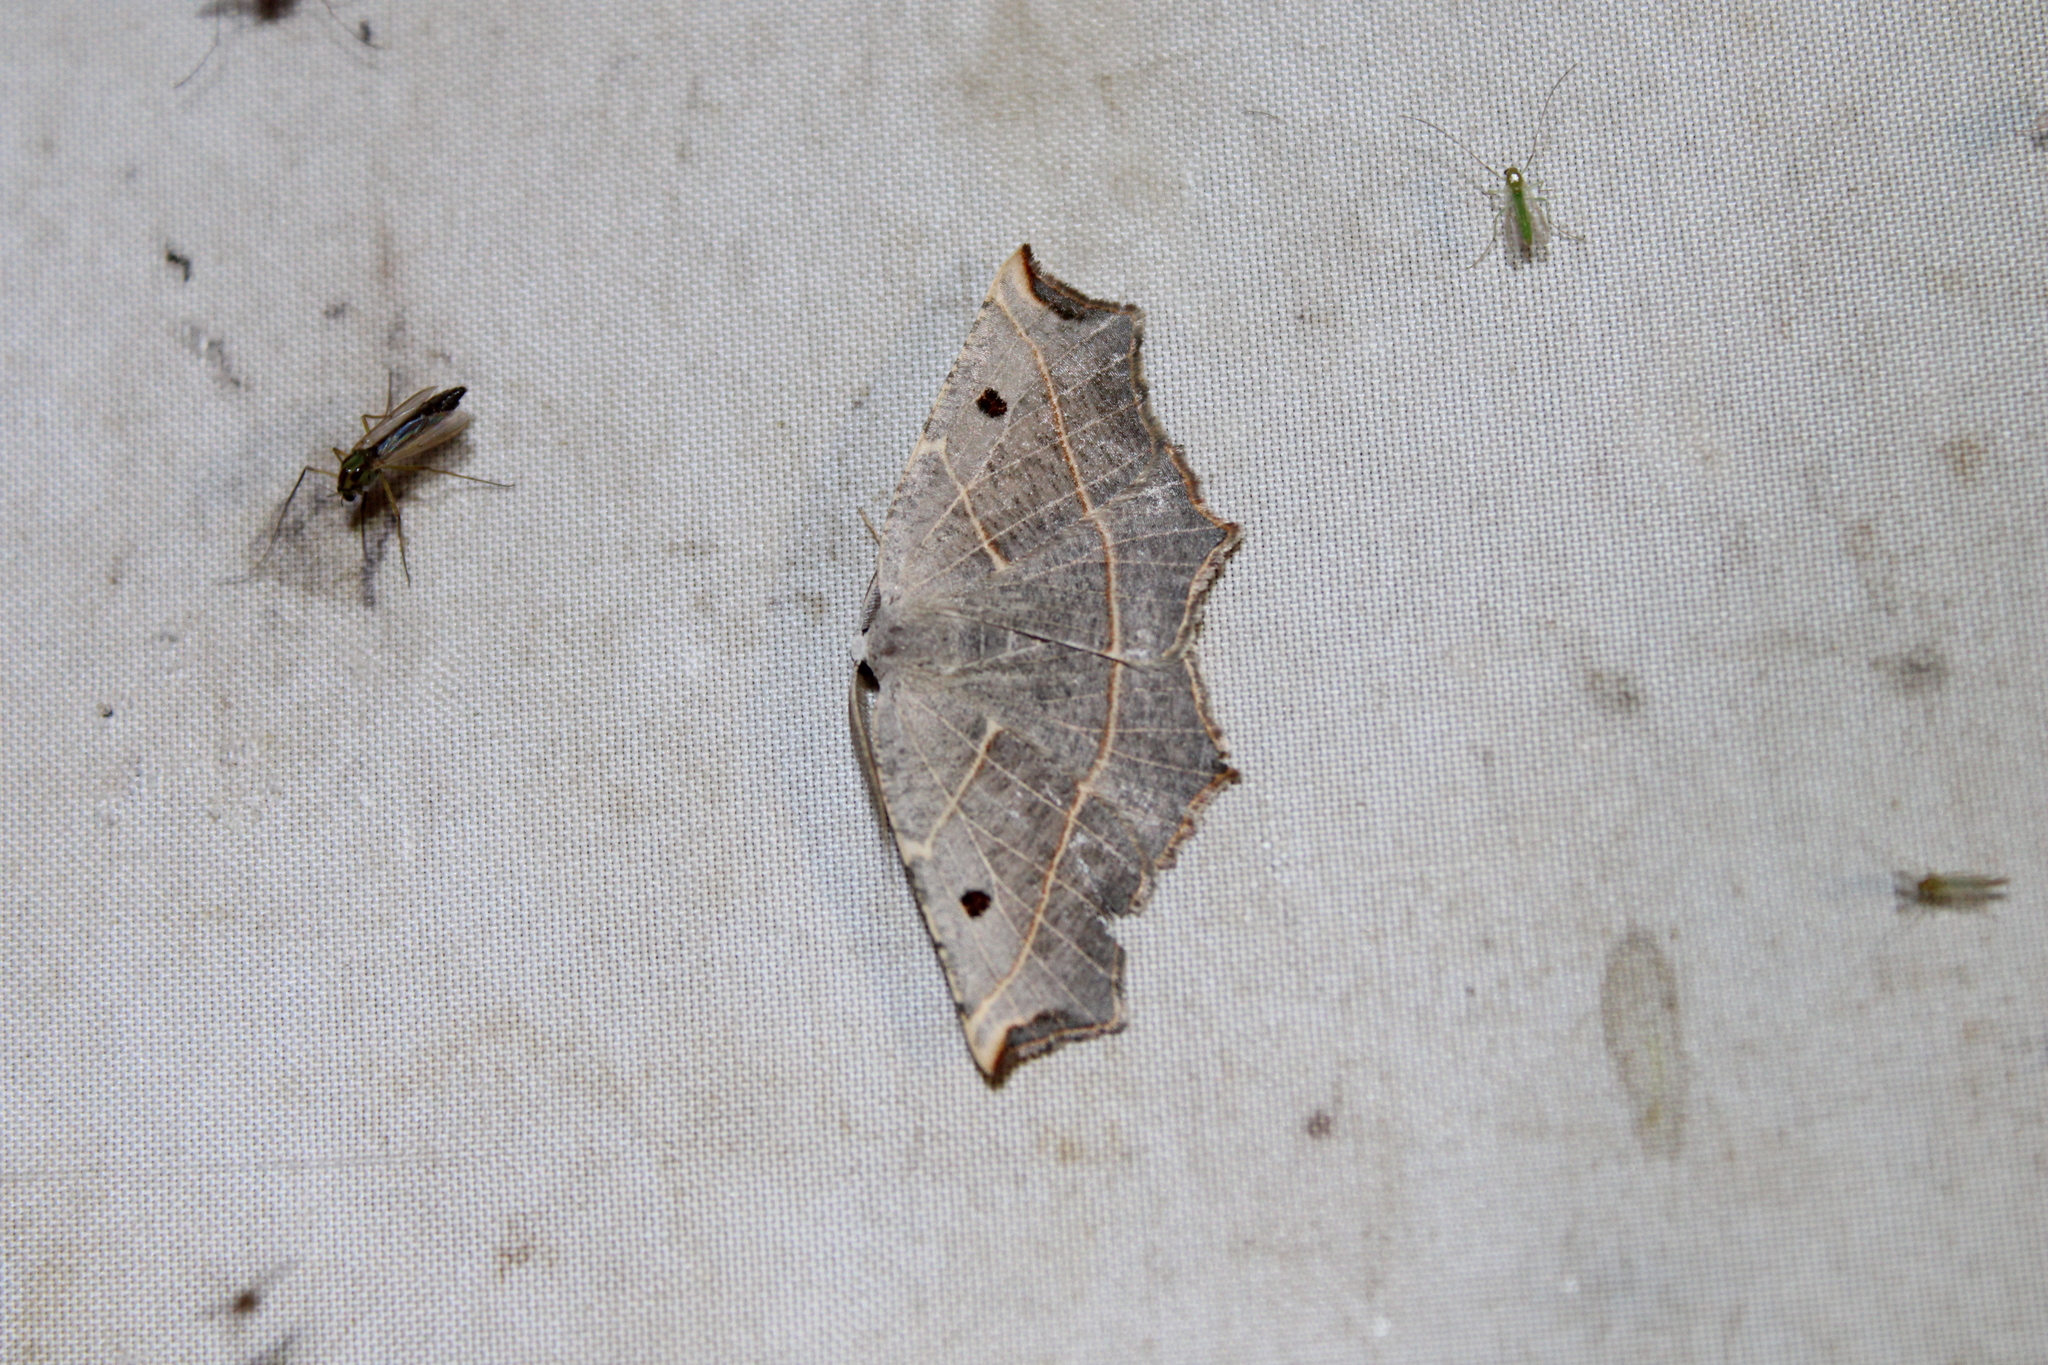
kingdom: Animalia
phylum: Arthropoda
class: Insecta
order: Lepidoptera
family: Geometridae
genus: Metanema
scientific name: Metanema inatomaria
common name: Pale metanema
